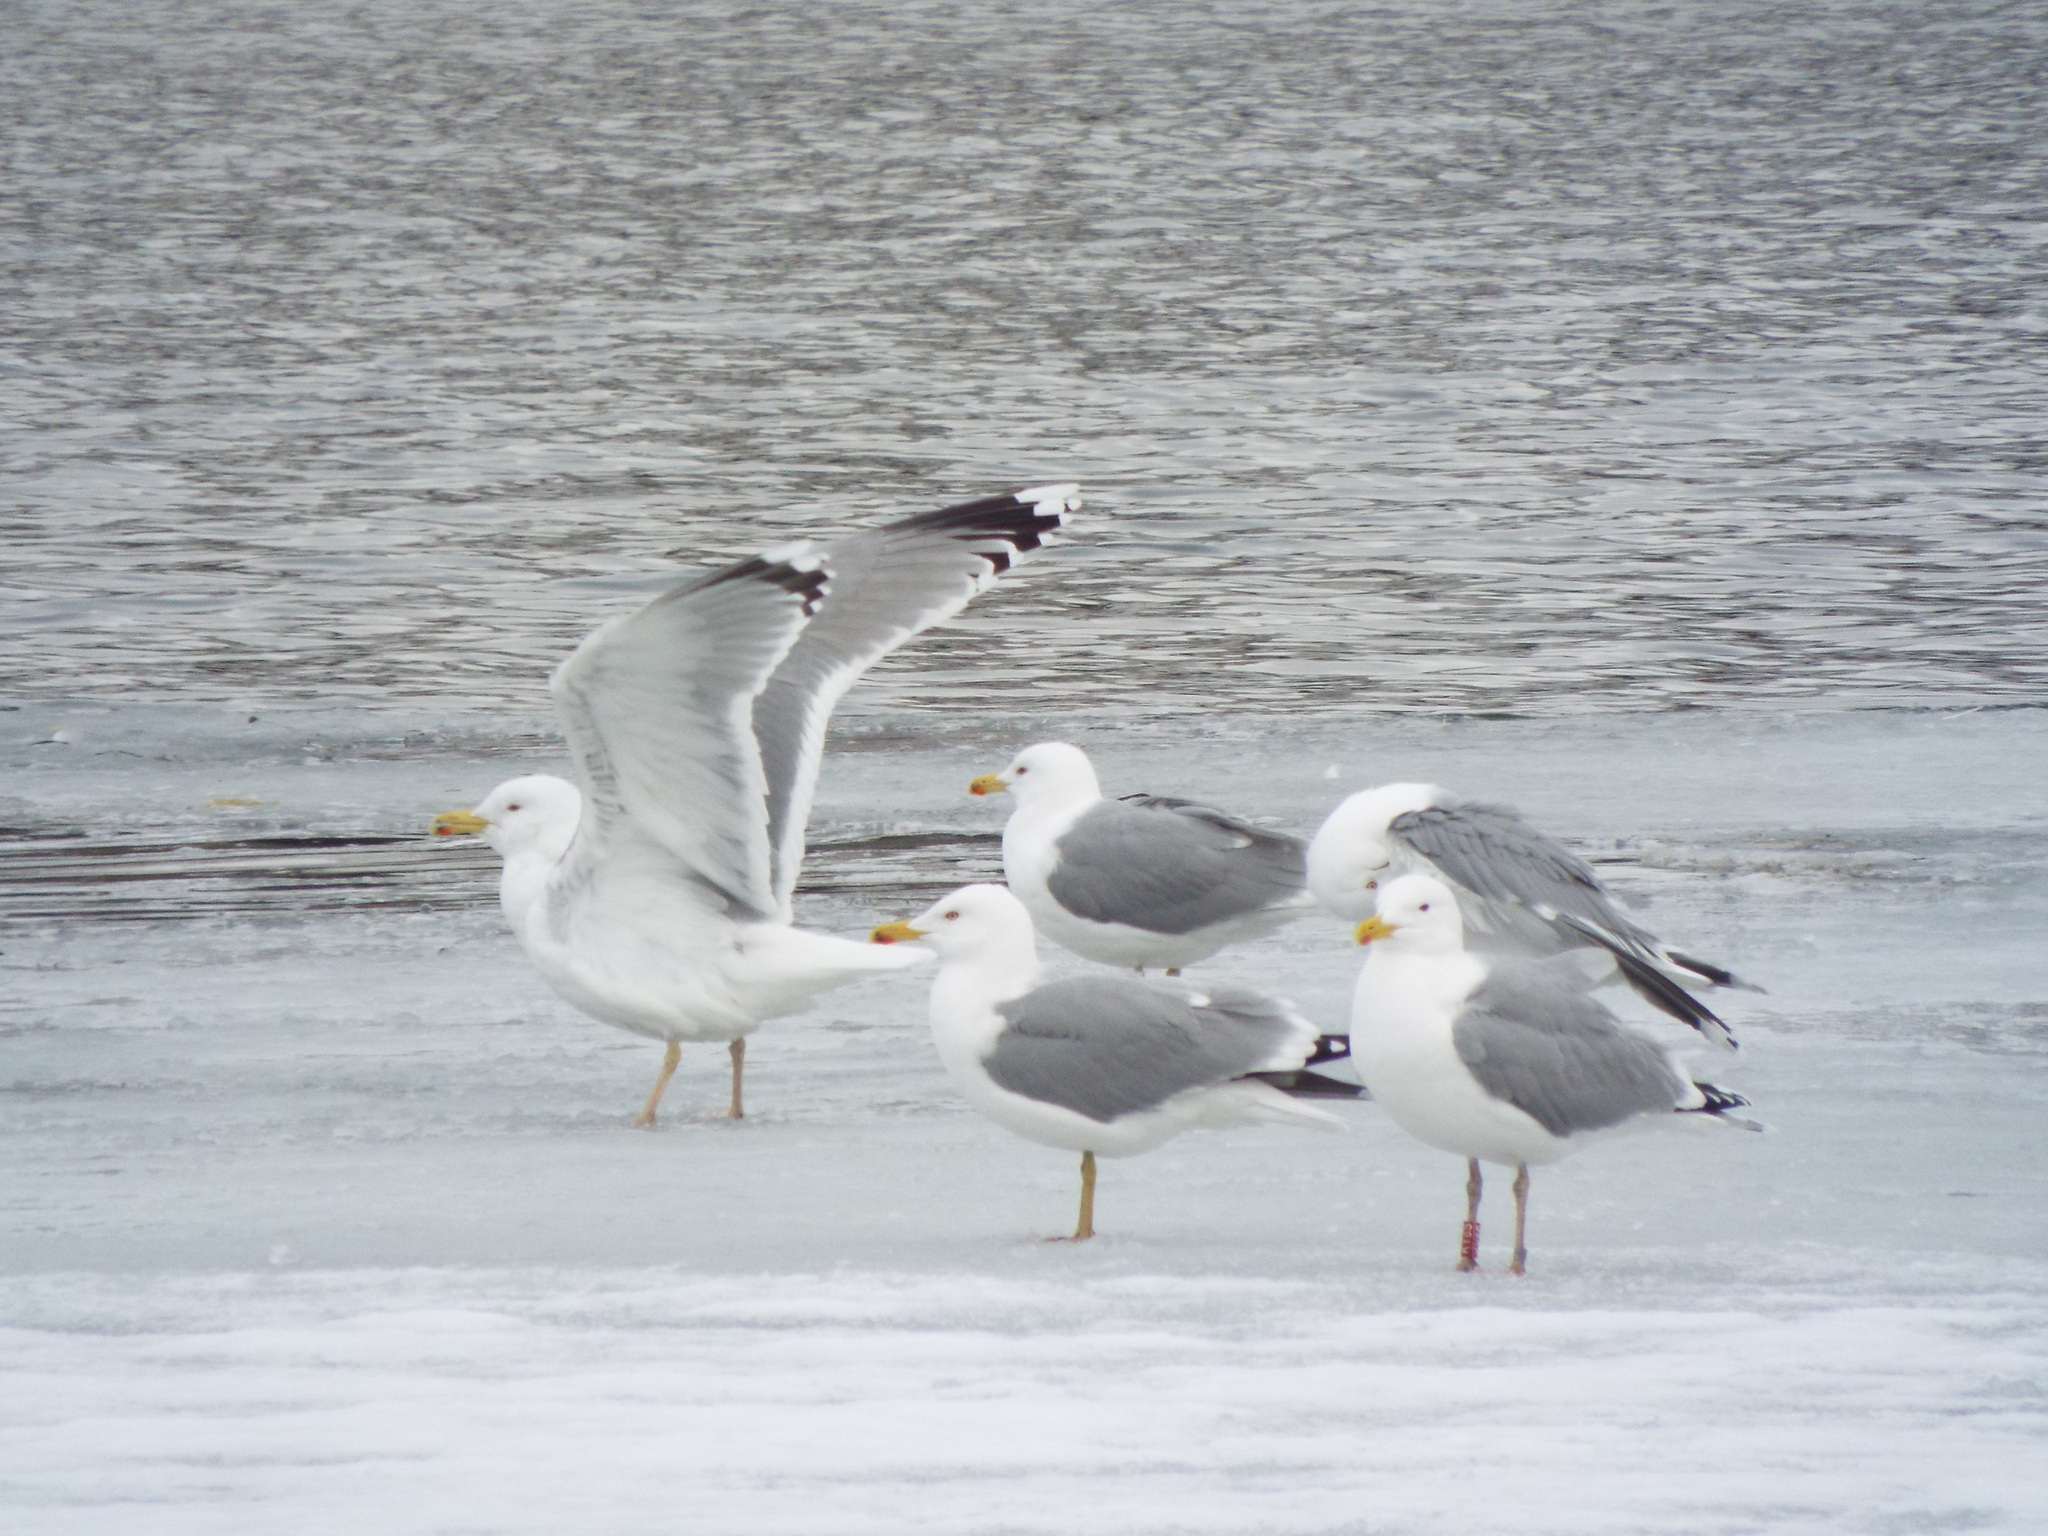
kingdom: Animalia
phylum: Chordata
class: Aves
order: Charadriiformes
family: Laridae
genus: Larus
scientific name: Larus cachinnans
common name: Caspian gull
